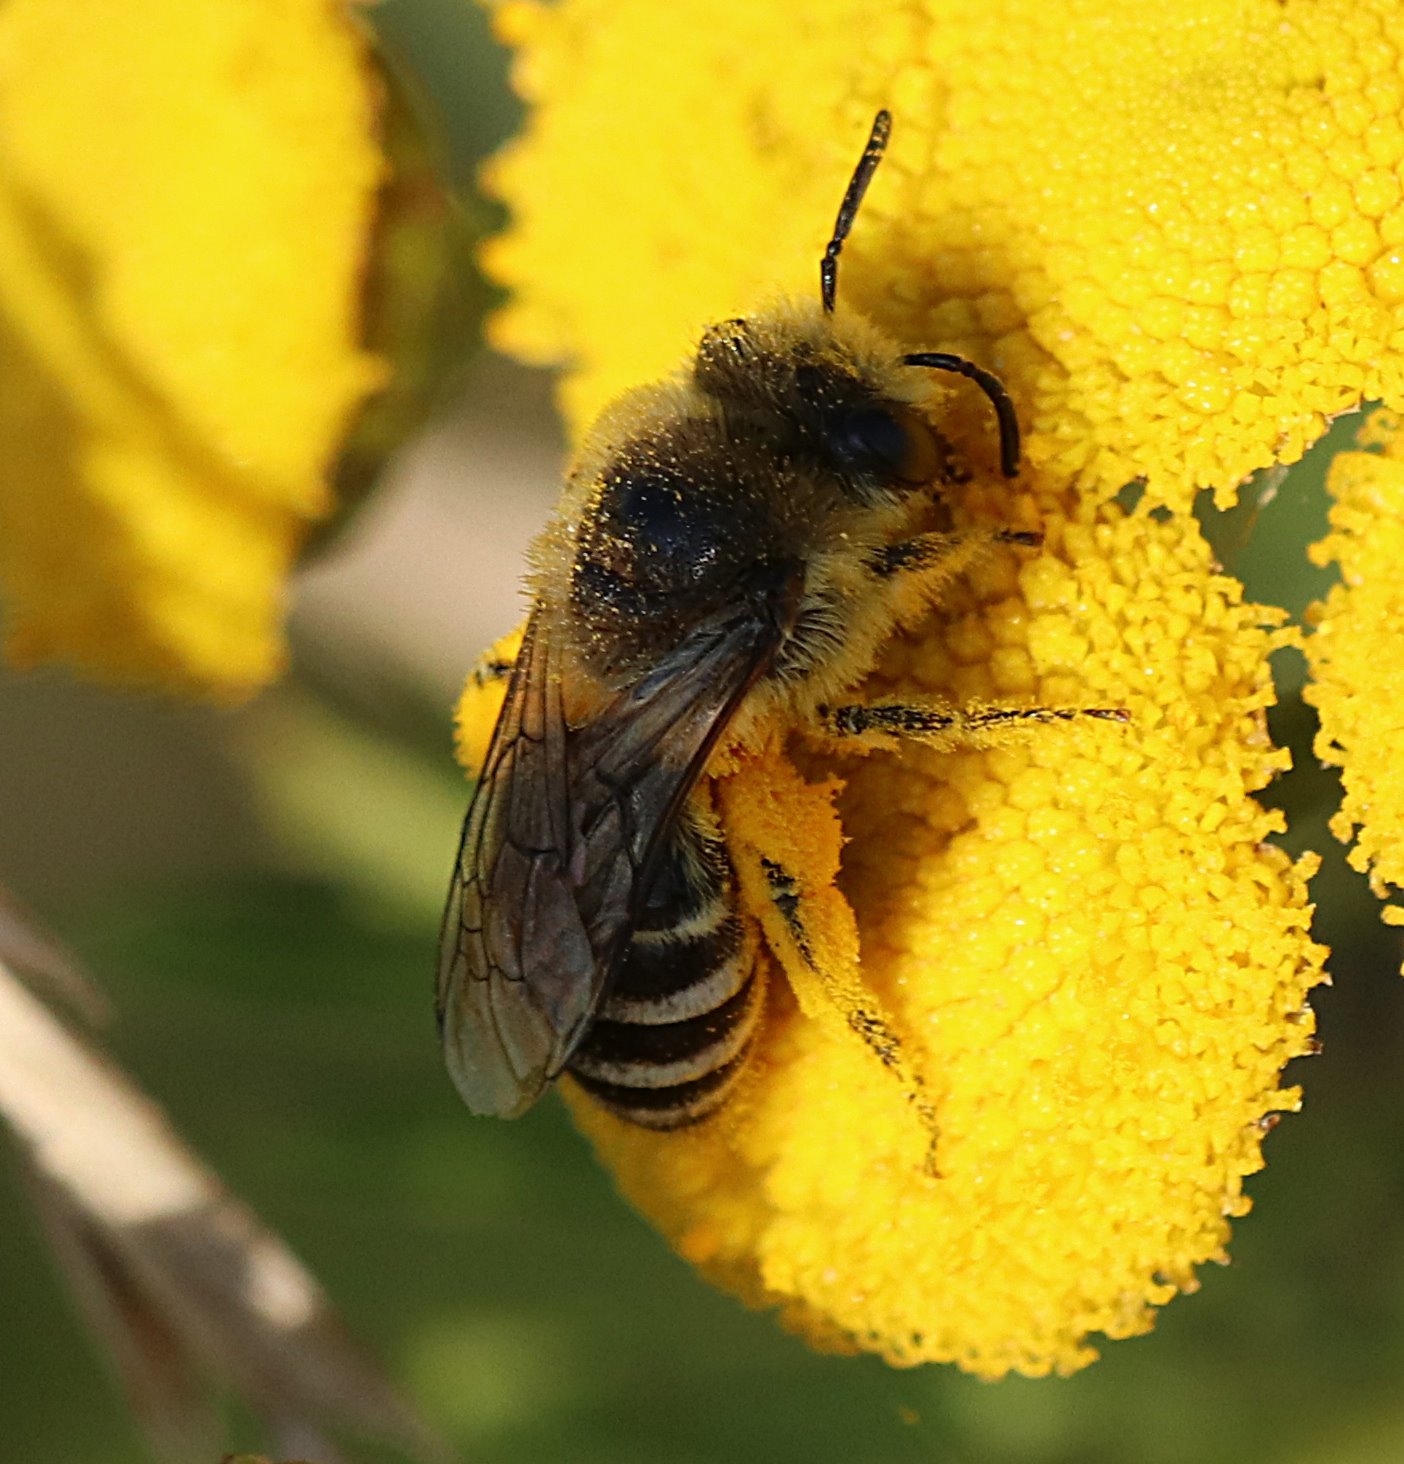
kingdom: Animalia
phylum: Arthropoda
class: Insecta
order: Hymenoptera
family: Colletidae
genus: Colletes
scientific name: Colletes
